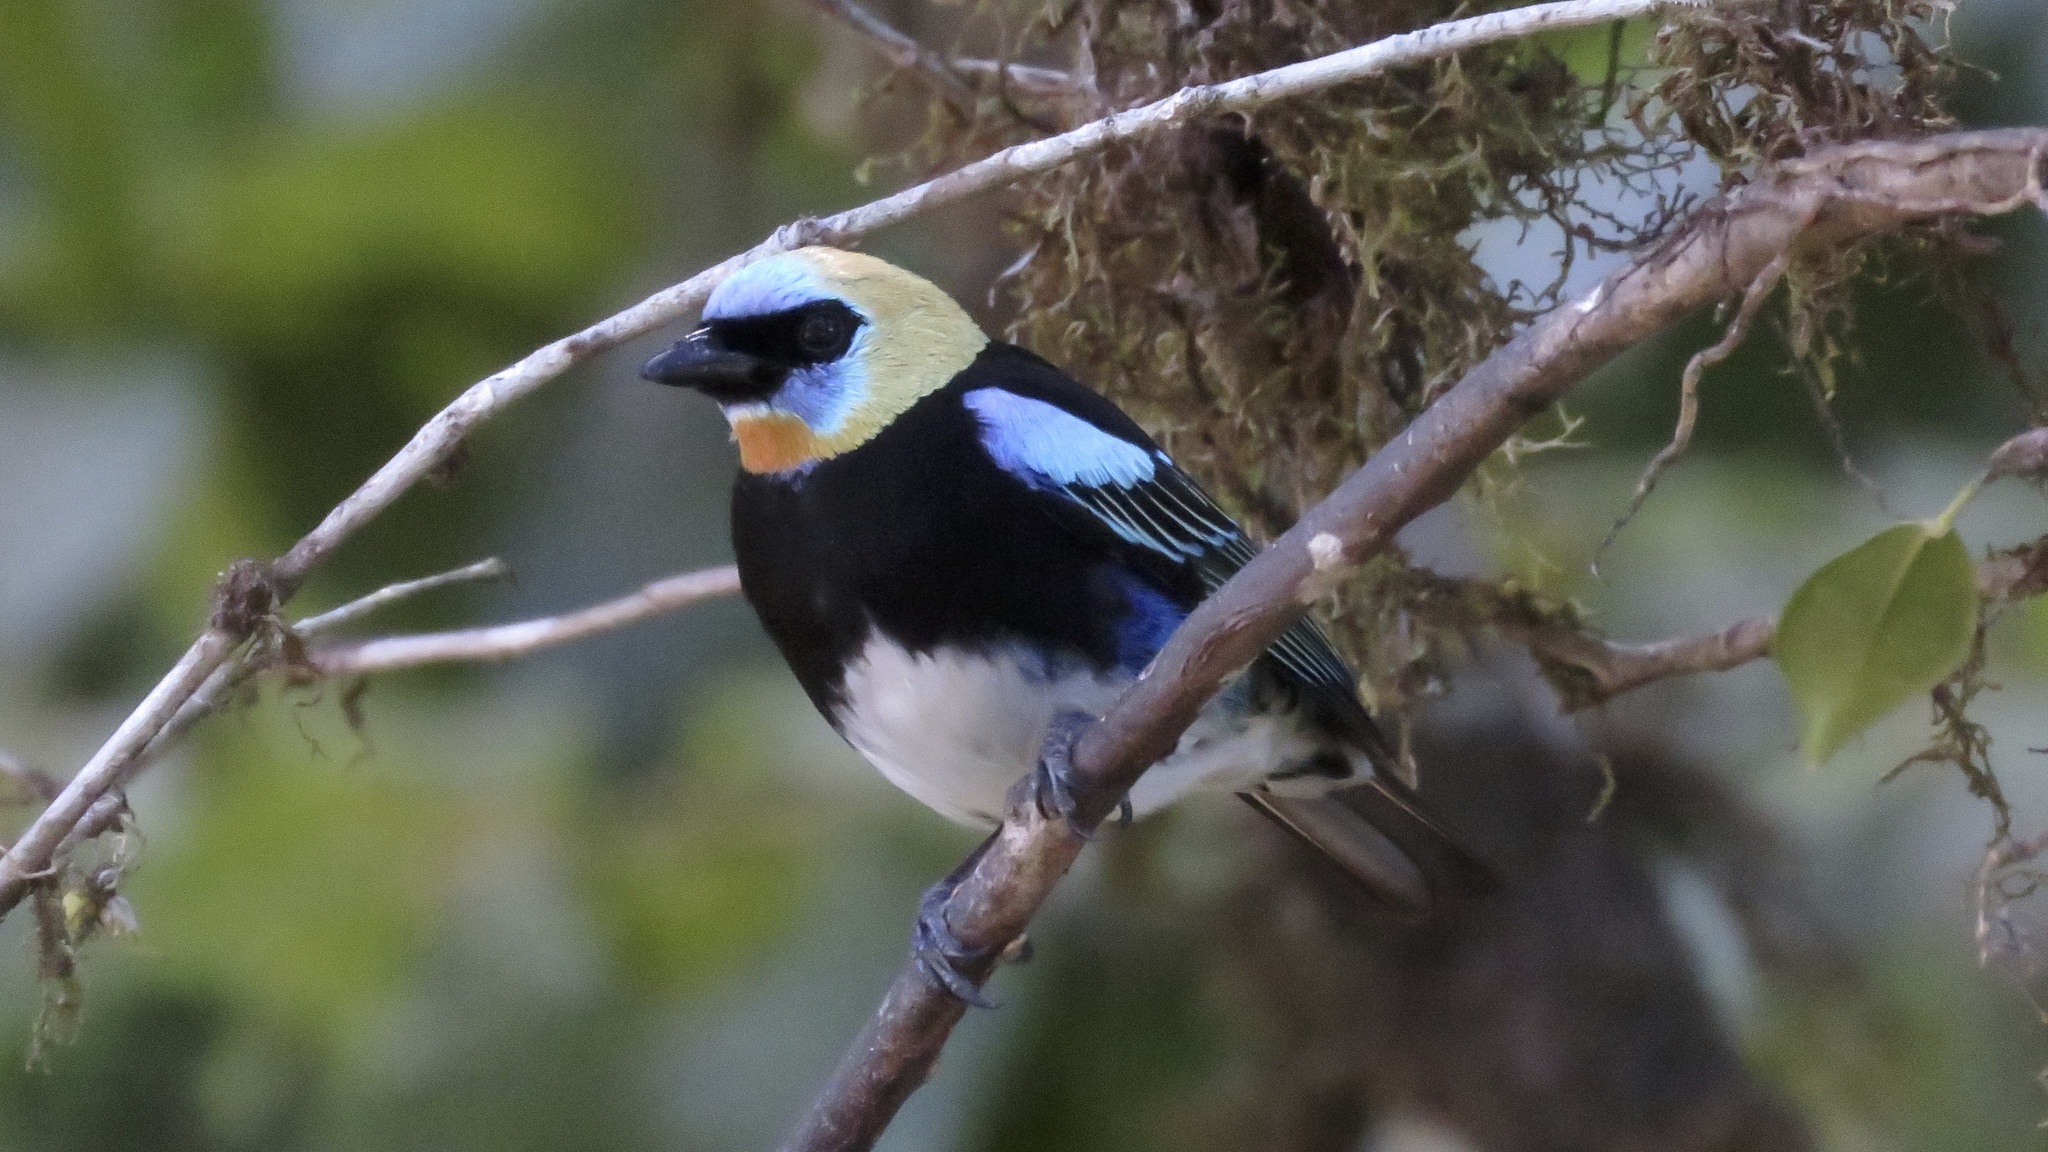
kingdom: Animalia
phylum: Chordata
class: Aves
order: Passeriformes
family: Thraupidae
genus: Stilpnia
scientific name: Stilpnia larvata
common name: Golden-hooded tanager
